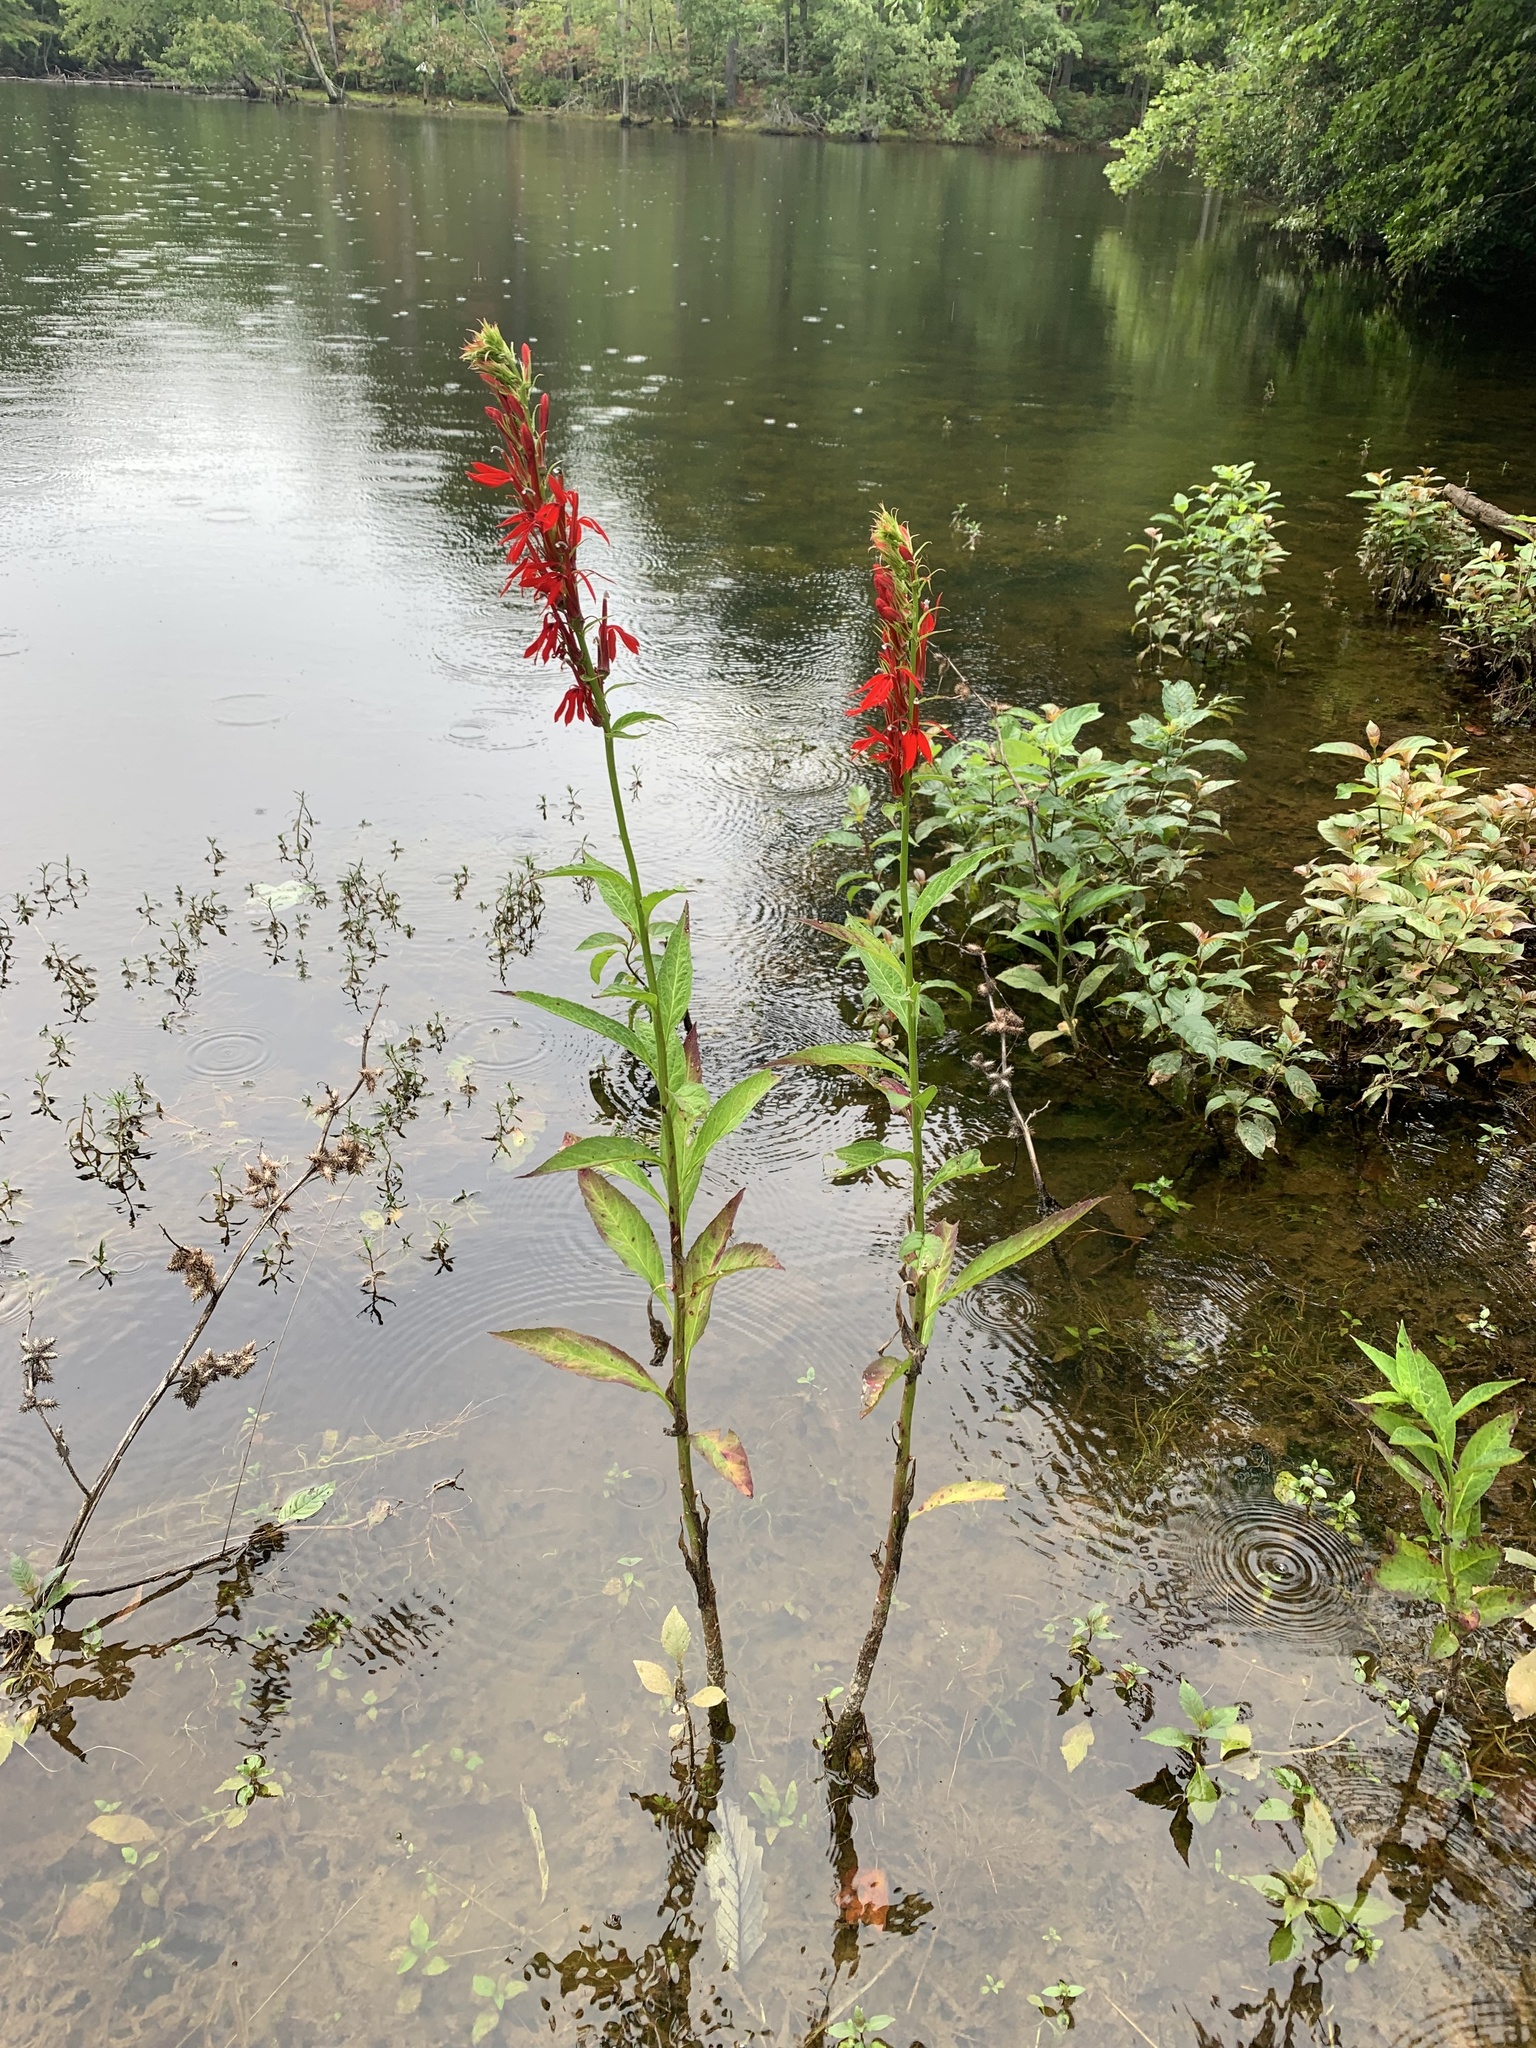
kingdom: Plantae
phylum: Tracheophyta
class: Magnoliopsida
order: Asterales
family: Campanulaceae
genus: Lobelia
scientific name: Lobelia cardinalis
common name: Cardinal flower
